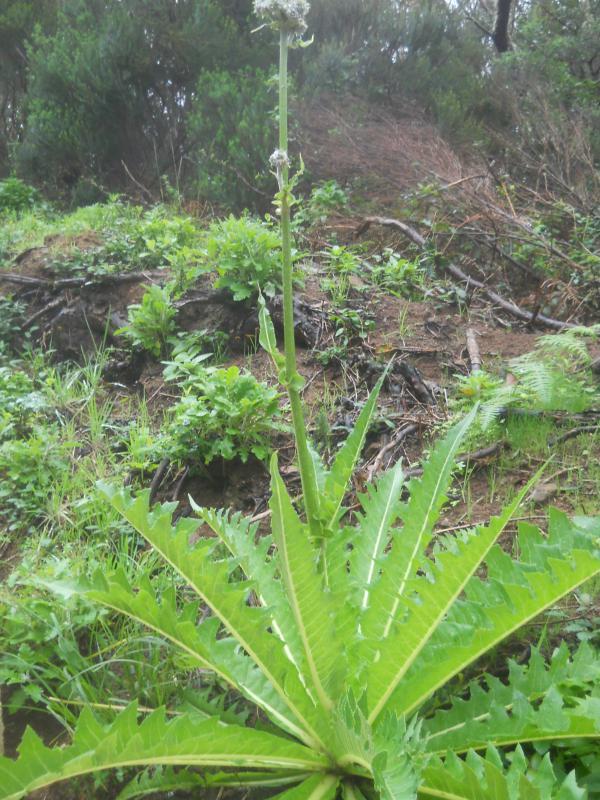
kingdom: Plantae
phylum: Tracheophyta
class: Magnoliopsida
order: Asterales
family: Asteraceae
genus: Sonchus
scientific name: Sonchus acaulis
